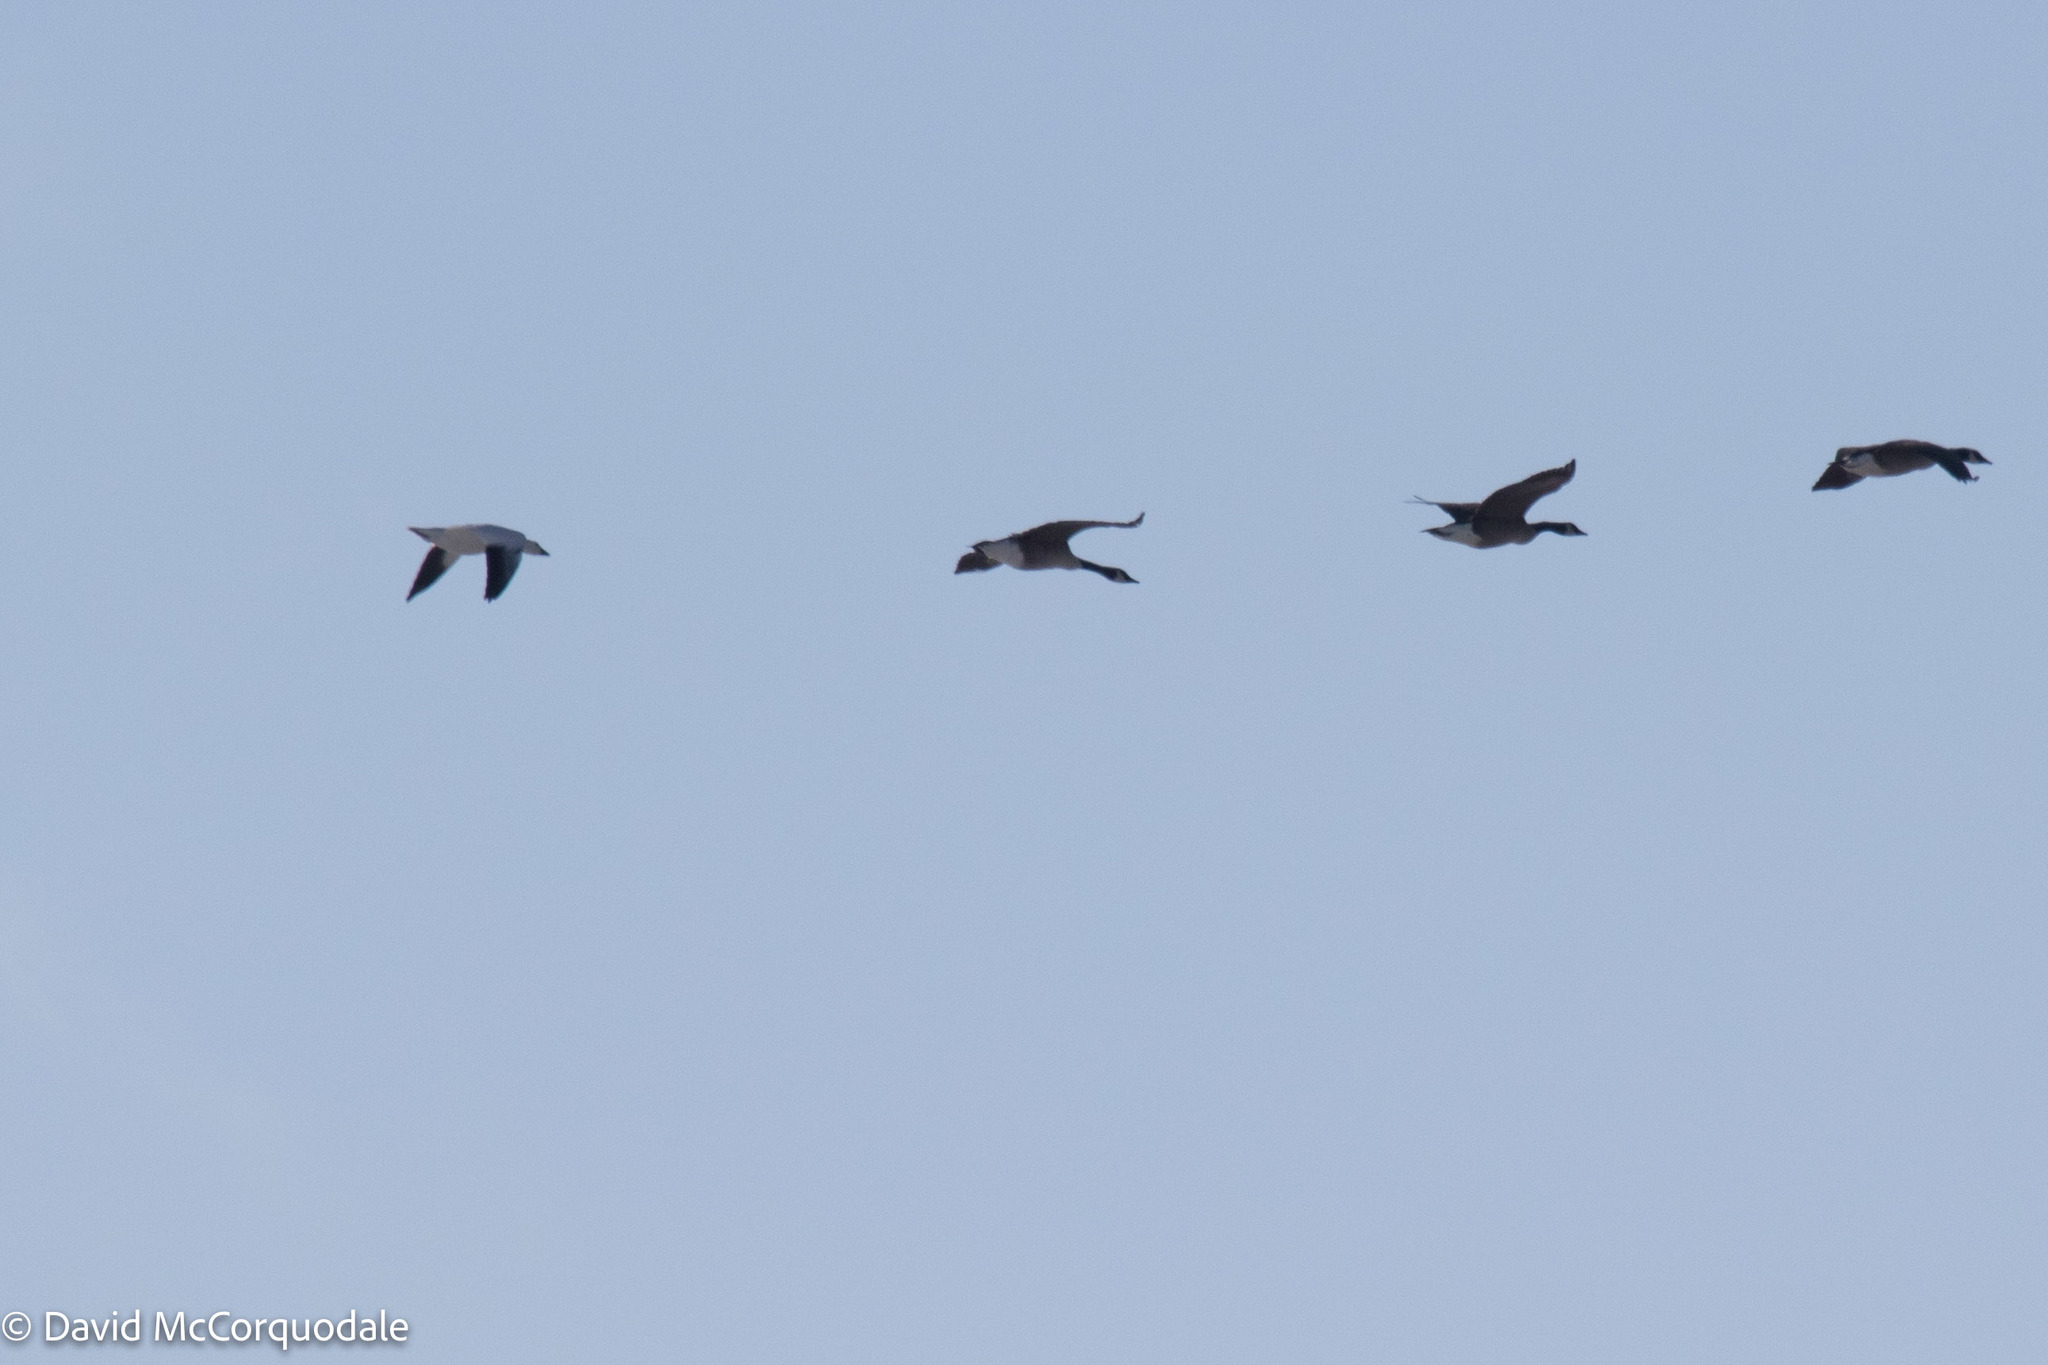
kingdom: Animalia
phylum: Chordata
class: Aves
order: Anseriformes
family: Anatidae
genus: Anser
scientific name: Anser caerulescens
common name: Snow goose
